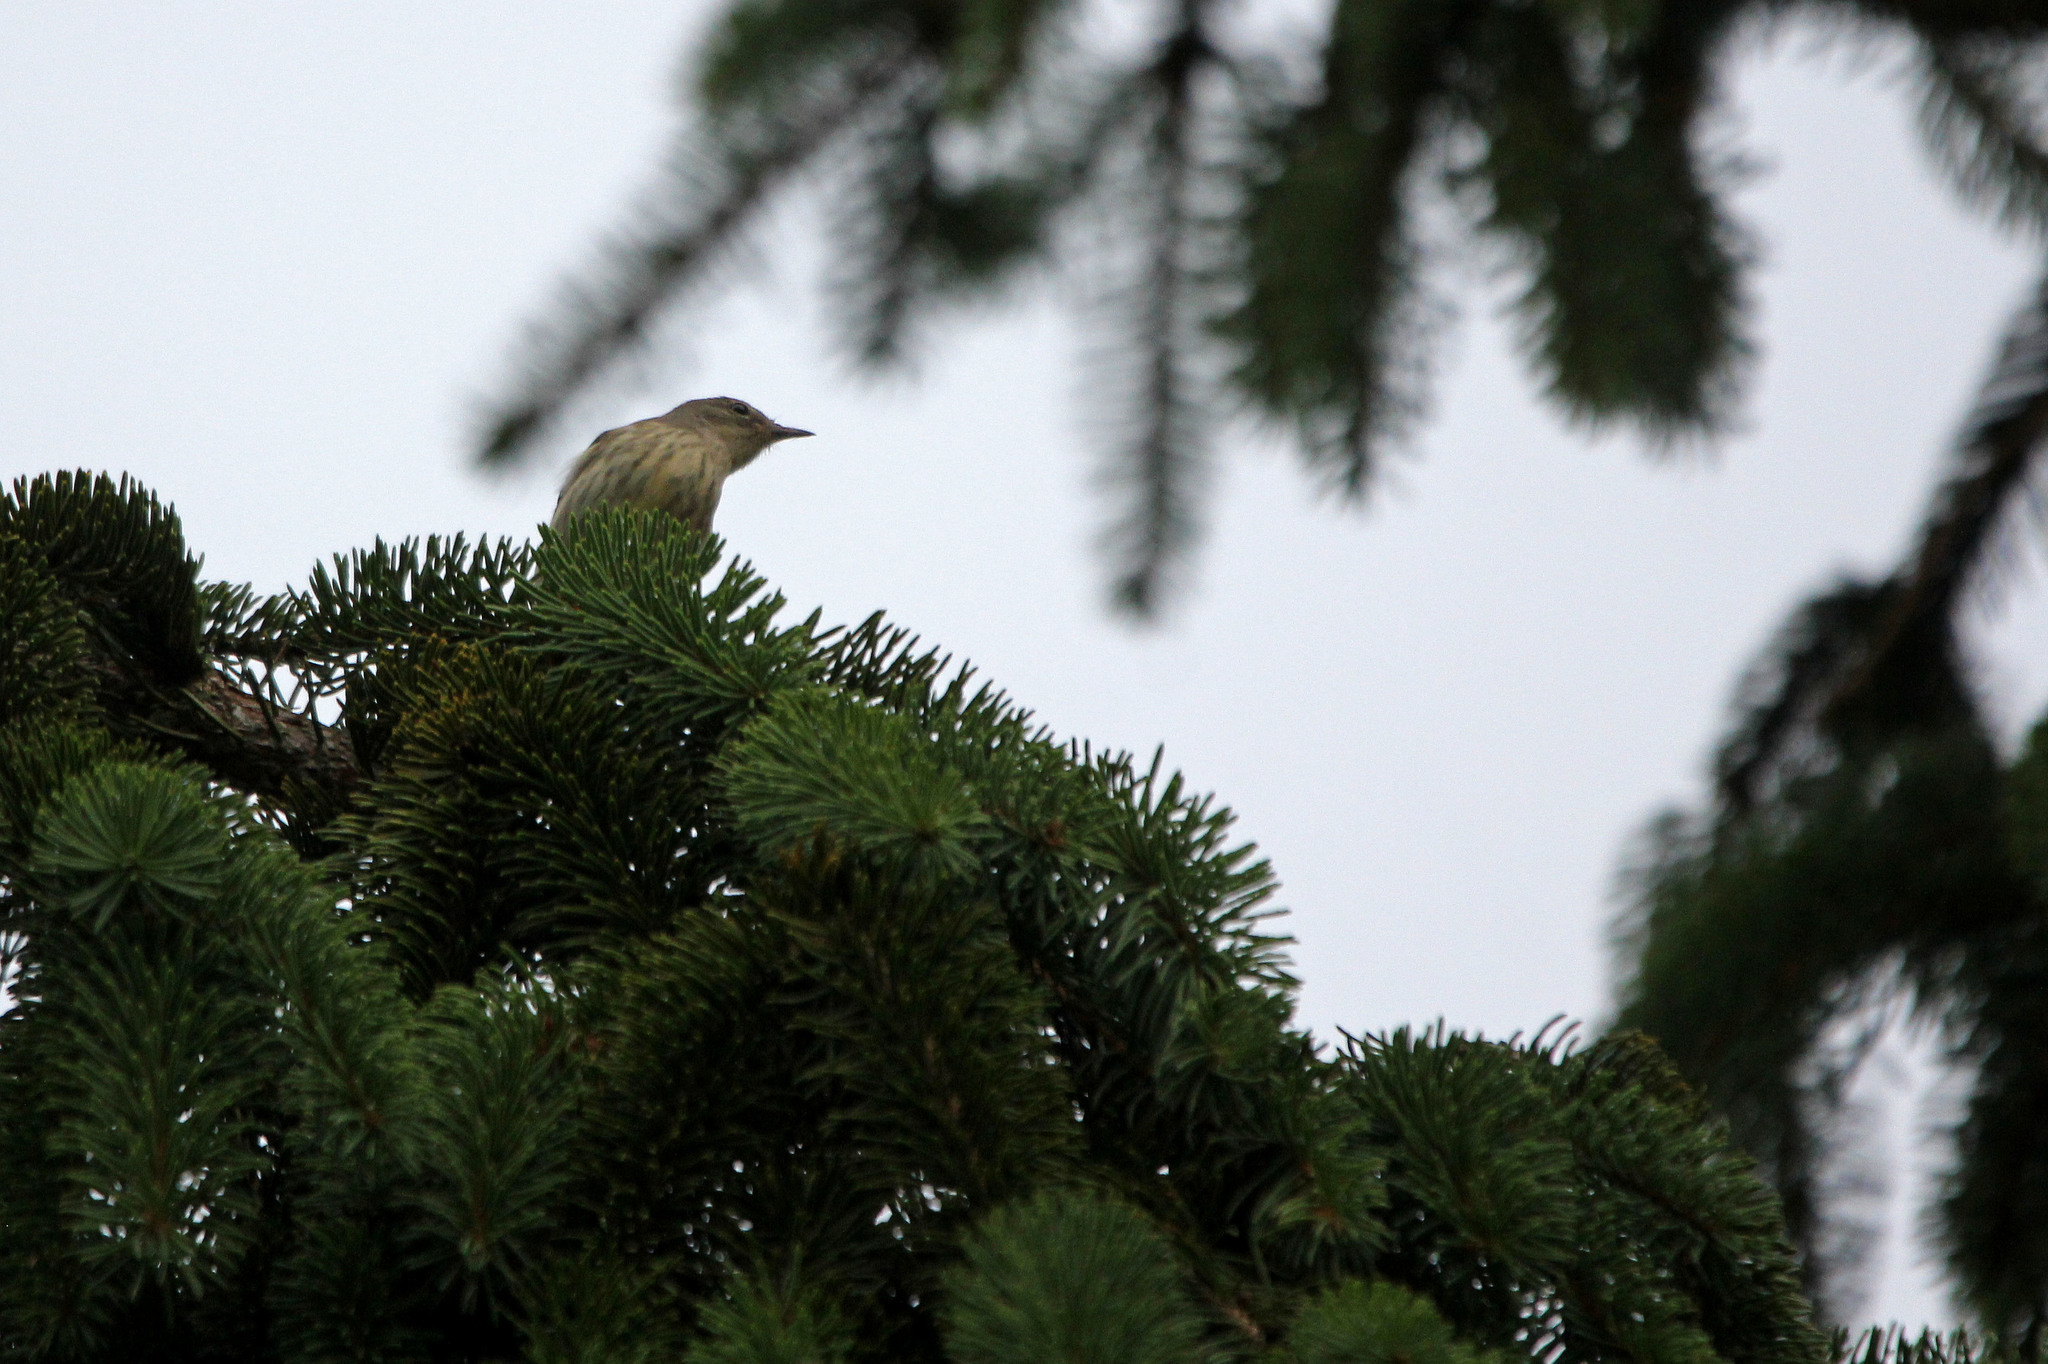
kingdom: Animalia
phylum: Chordata
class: Aves
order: Passeriformes
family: Parulidae
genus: Setophaga
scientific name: Setophaga tigrina
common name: Cape may warbler
